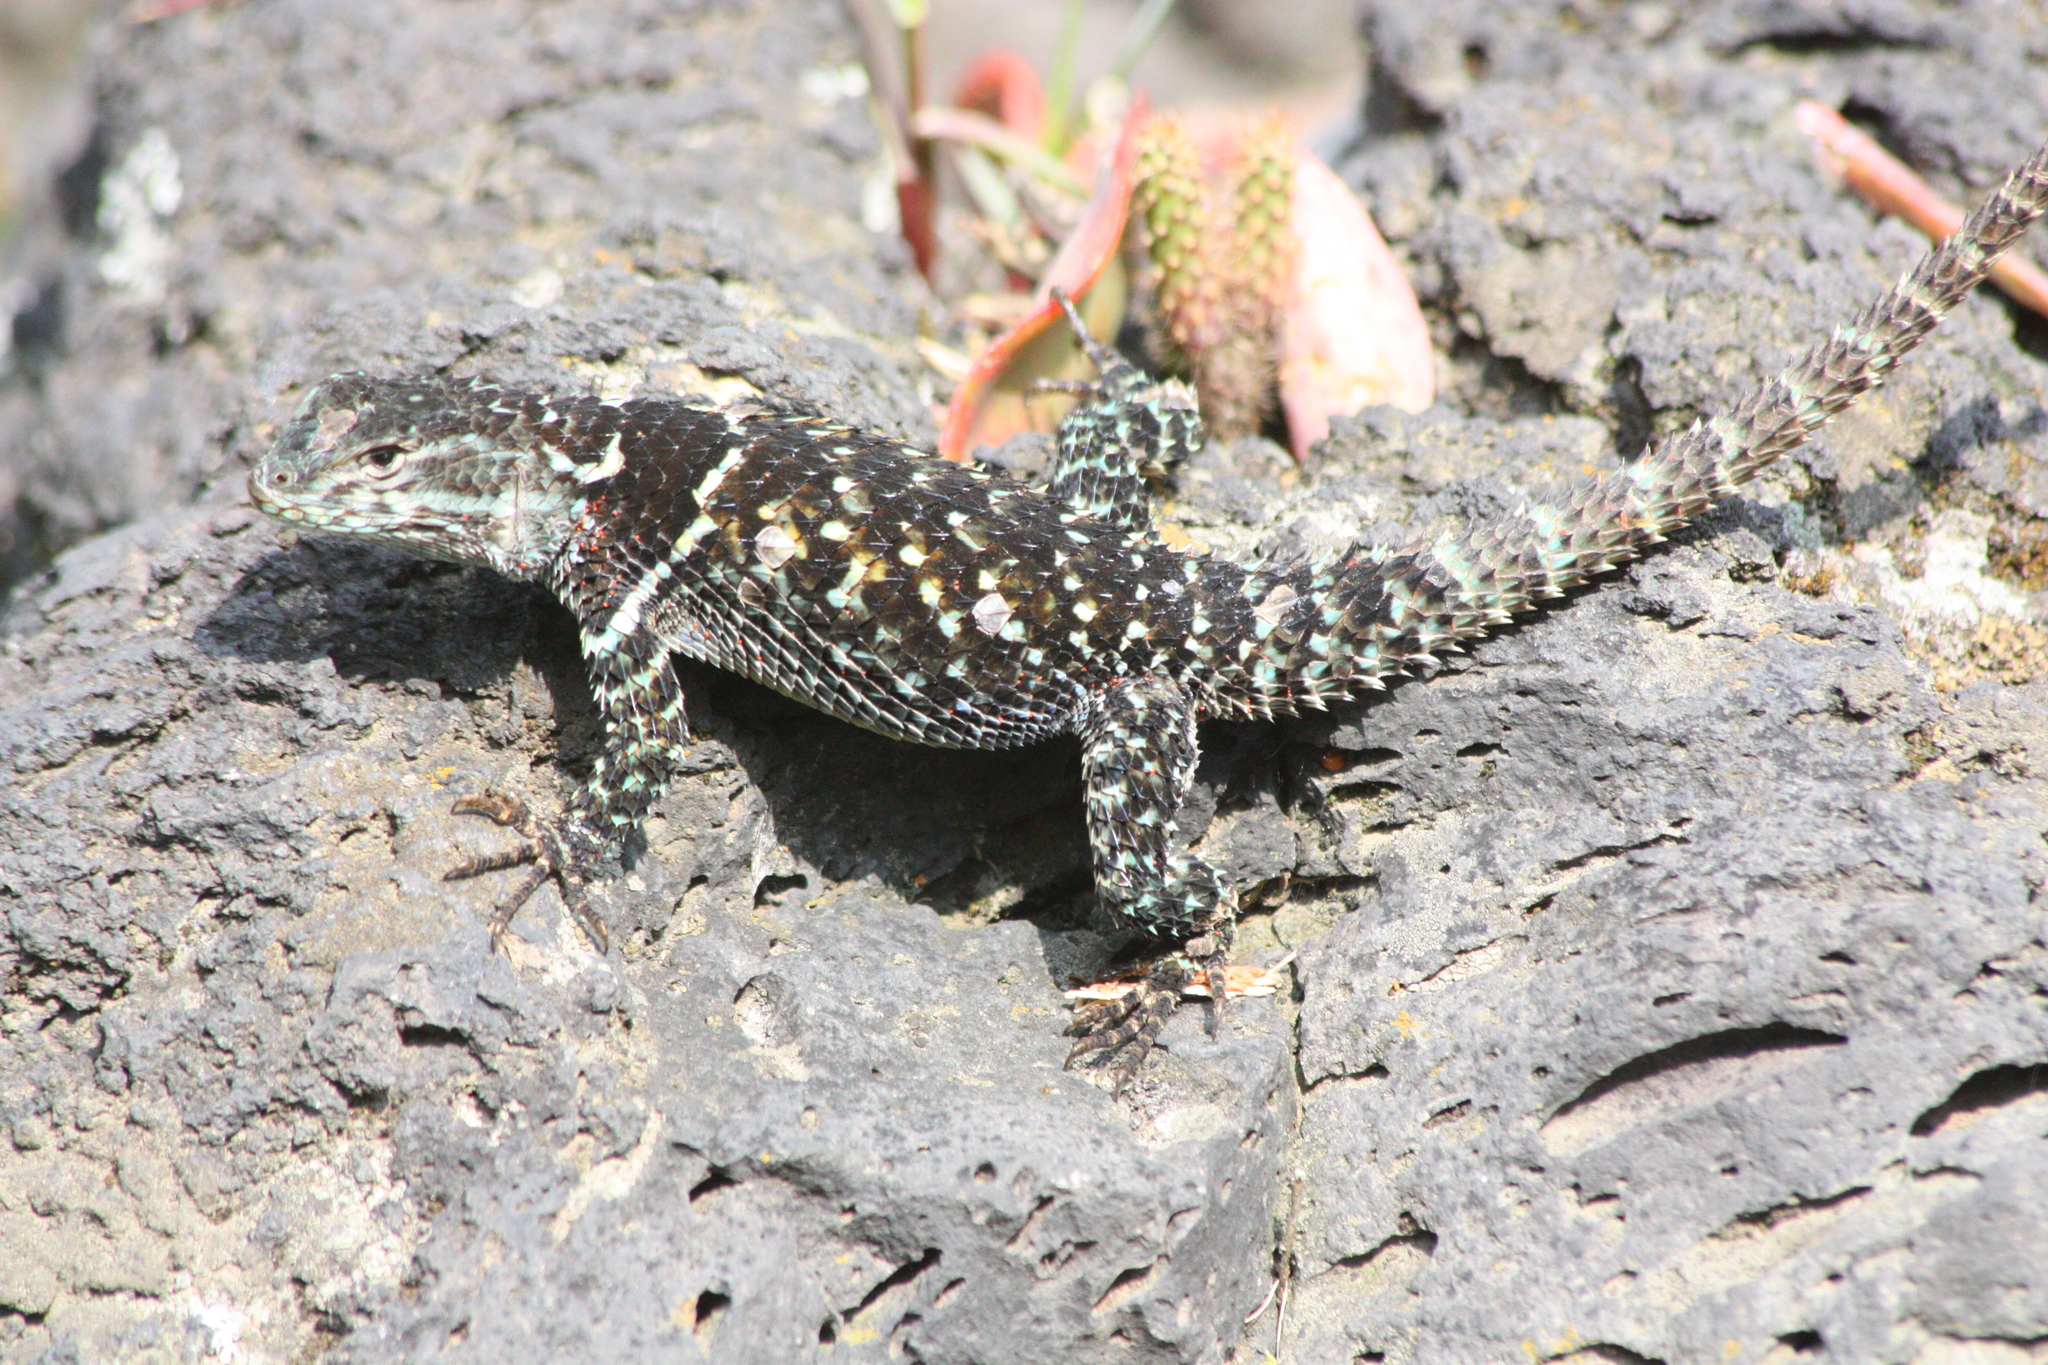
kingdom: Animalia
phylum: Chordata
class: Squamata
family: Phrynosomatidae
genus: Sceloporus
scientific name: Sceloporus torquatus
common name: Central plateau torquate lizard [melanogaster]
